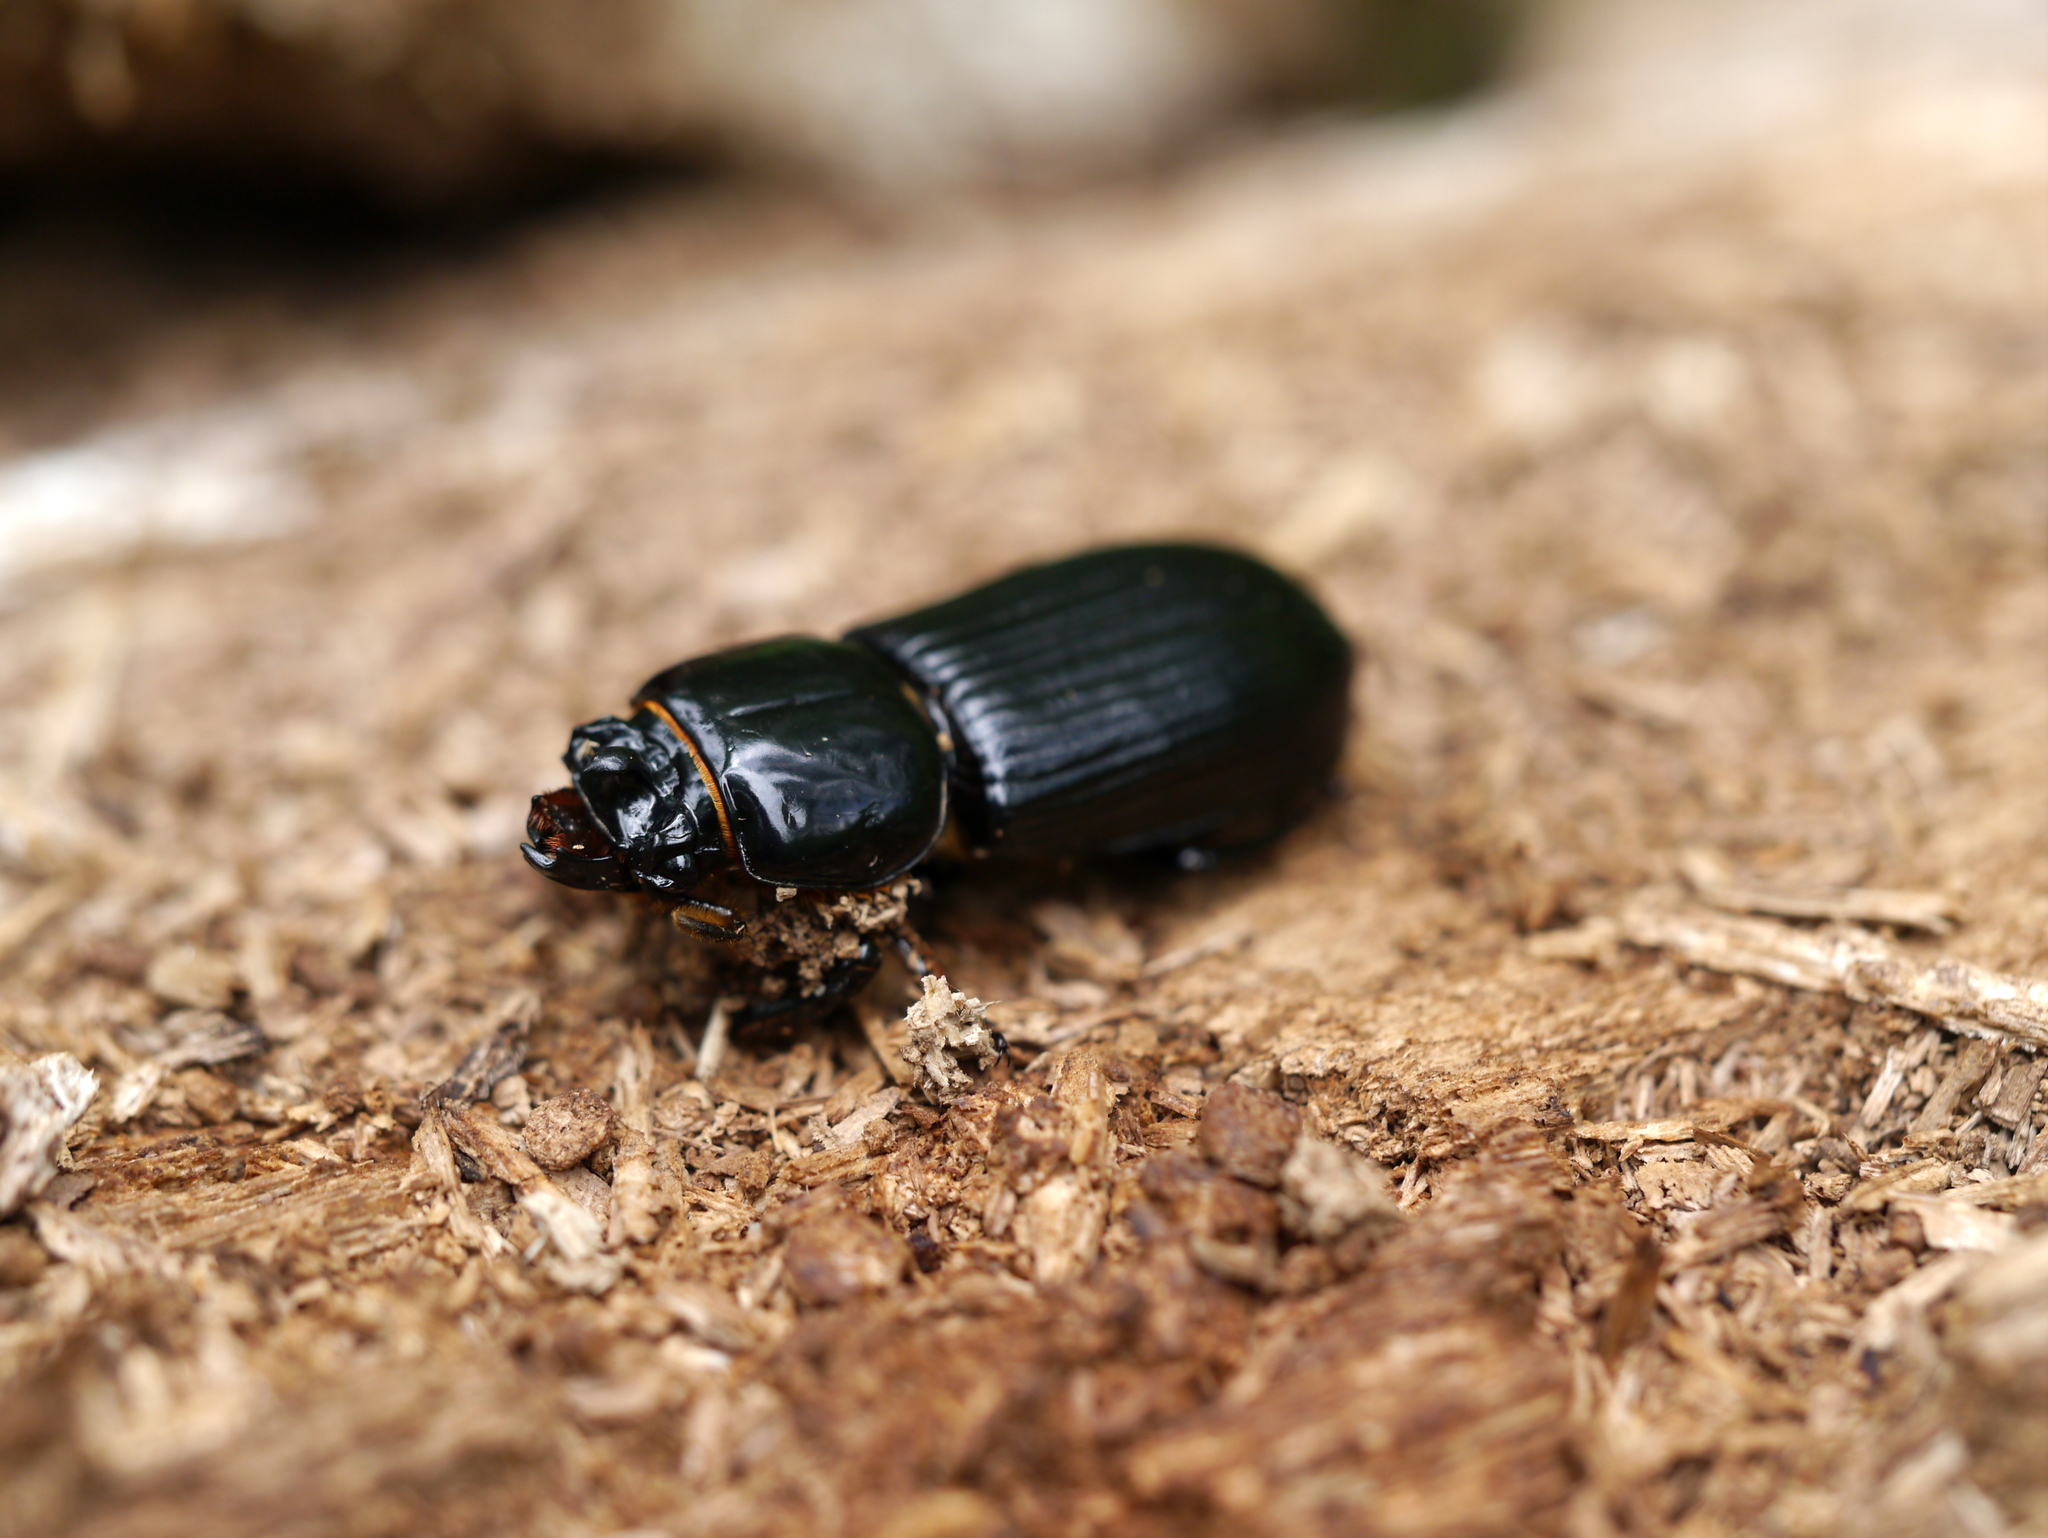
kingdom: Animalia
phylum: Arthropoda
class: Insecta
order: Coleoptera
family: Passalidae
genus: Odontotaenius
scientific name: Odontotaenius disjunctus
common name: Patent leather beetle
